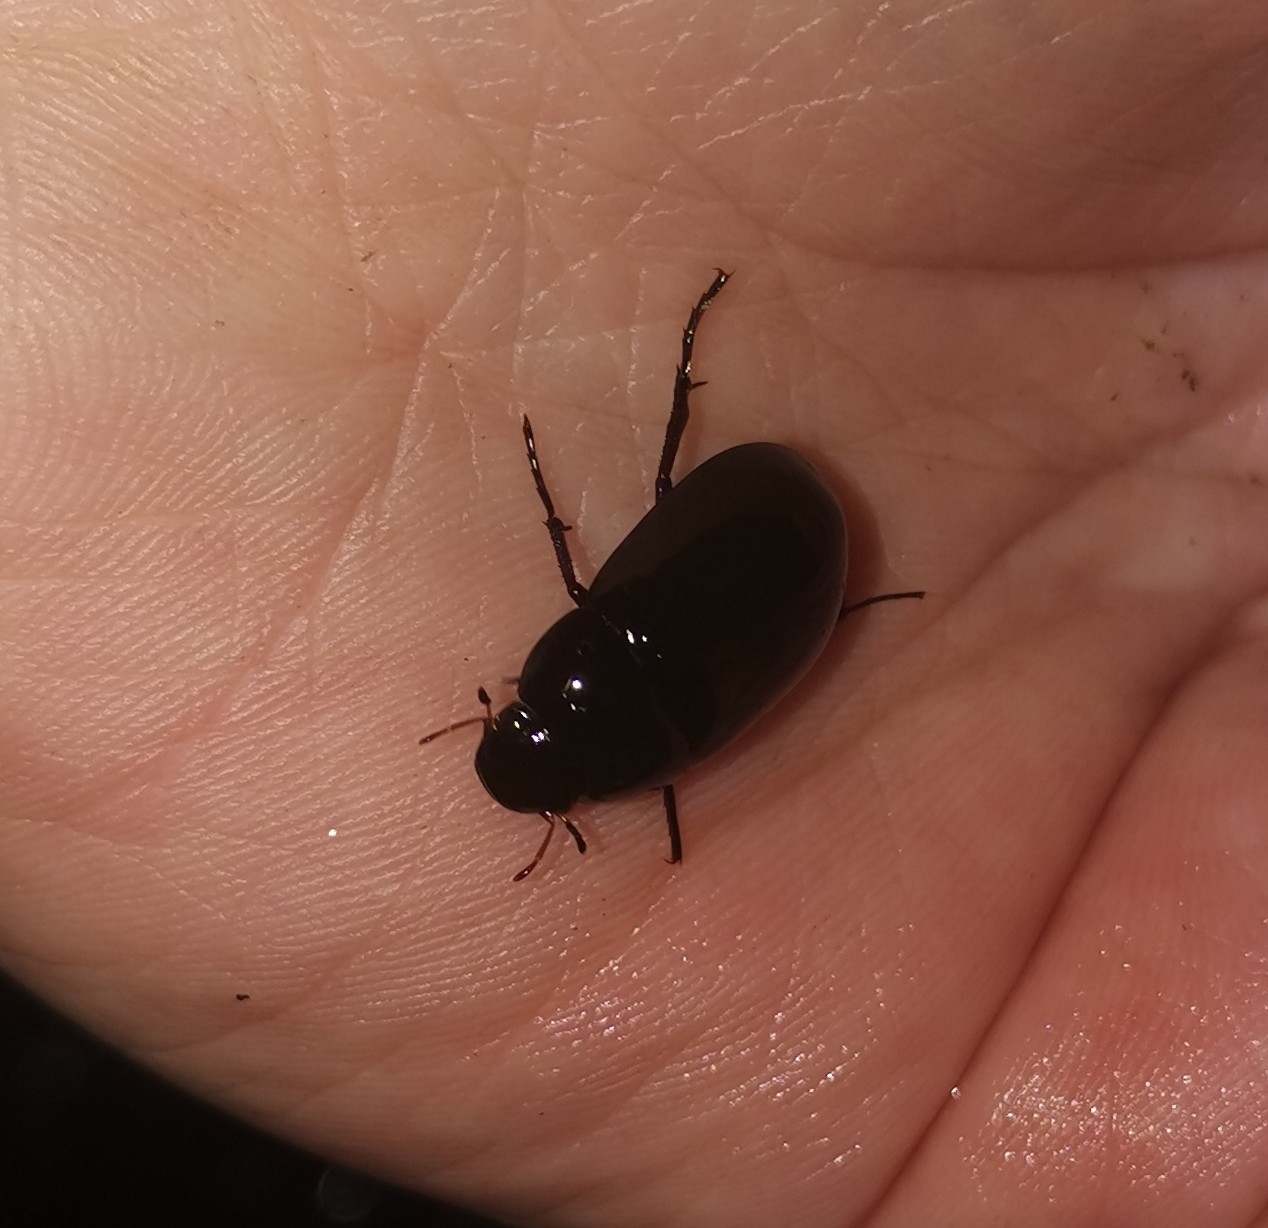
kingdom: Animalia
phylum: Arthropoda
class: Insecta
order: Coleoptera
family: Hydrophilidae
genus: Hydrochara
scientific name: Hydrochara caraboides
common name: Lesser silver water beetle
